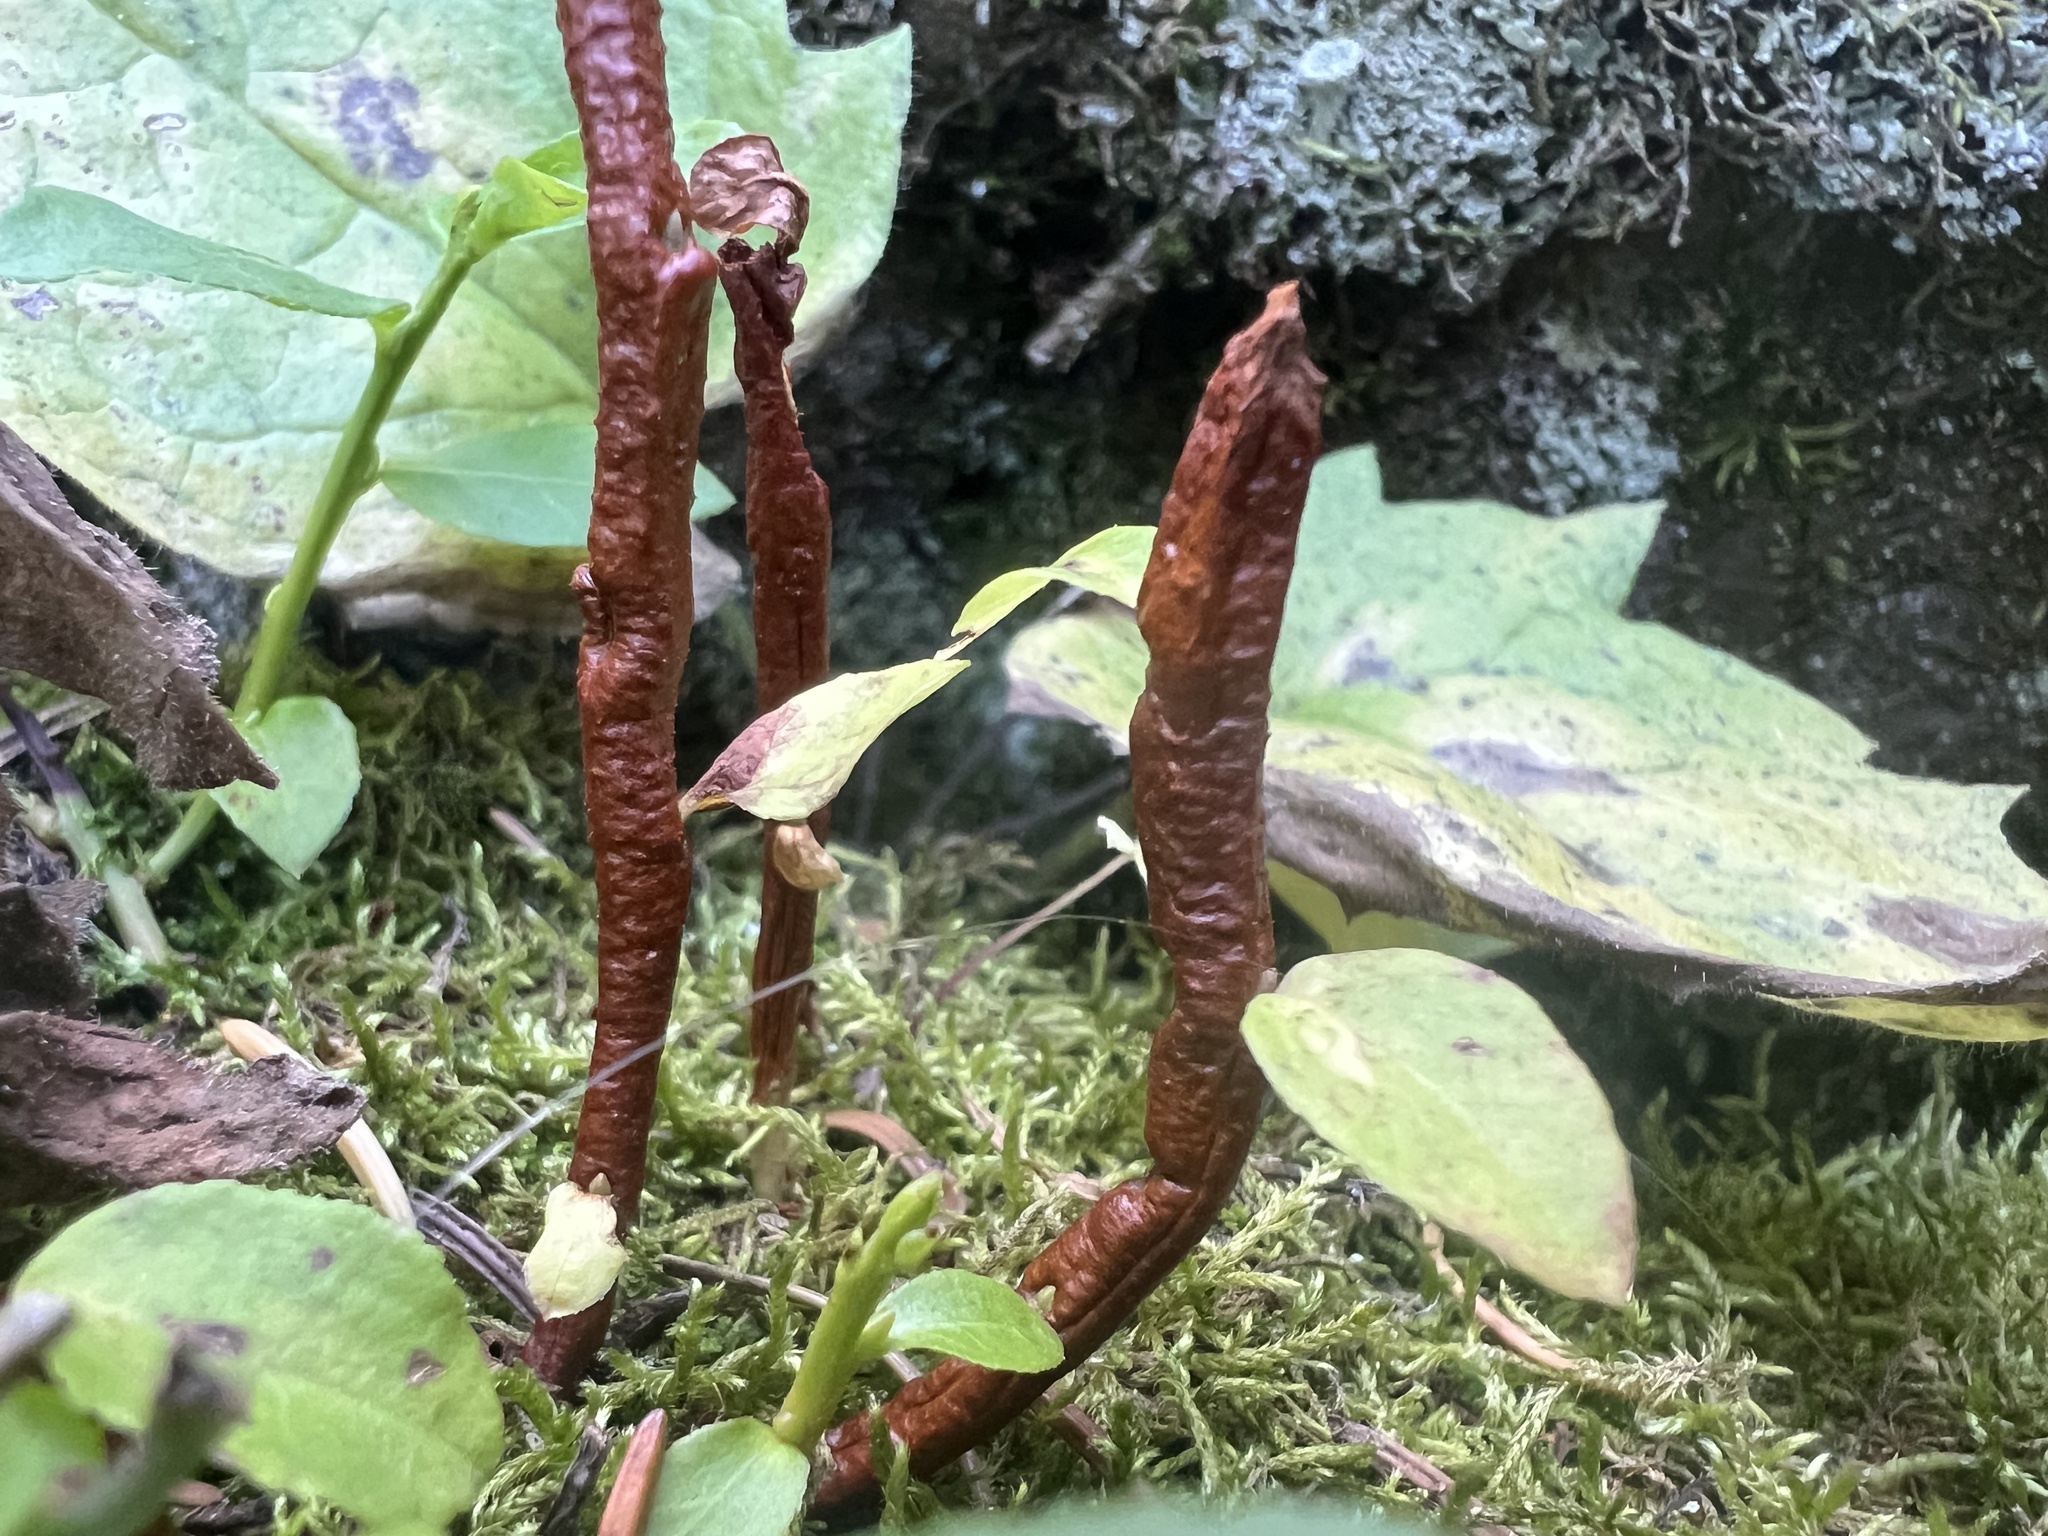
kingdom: Fungi
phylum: Basidiomycota
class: Pucciniomycetes
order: Pucciniales
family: Pucciniastraceae
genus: Calyptospora
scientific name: Calyptospora
